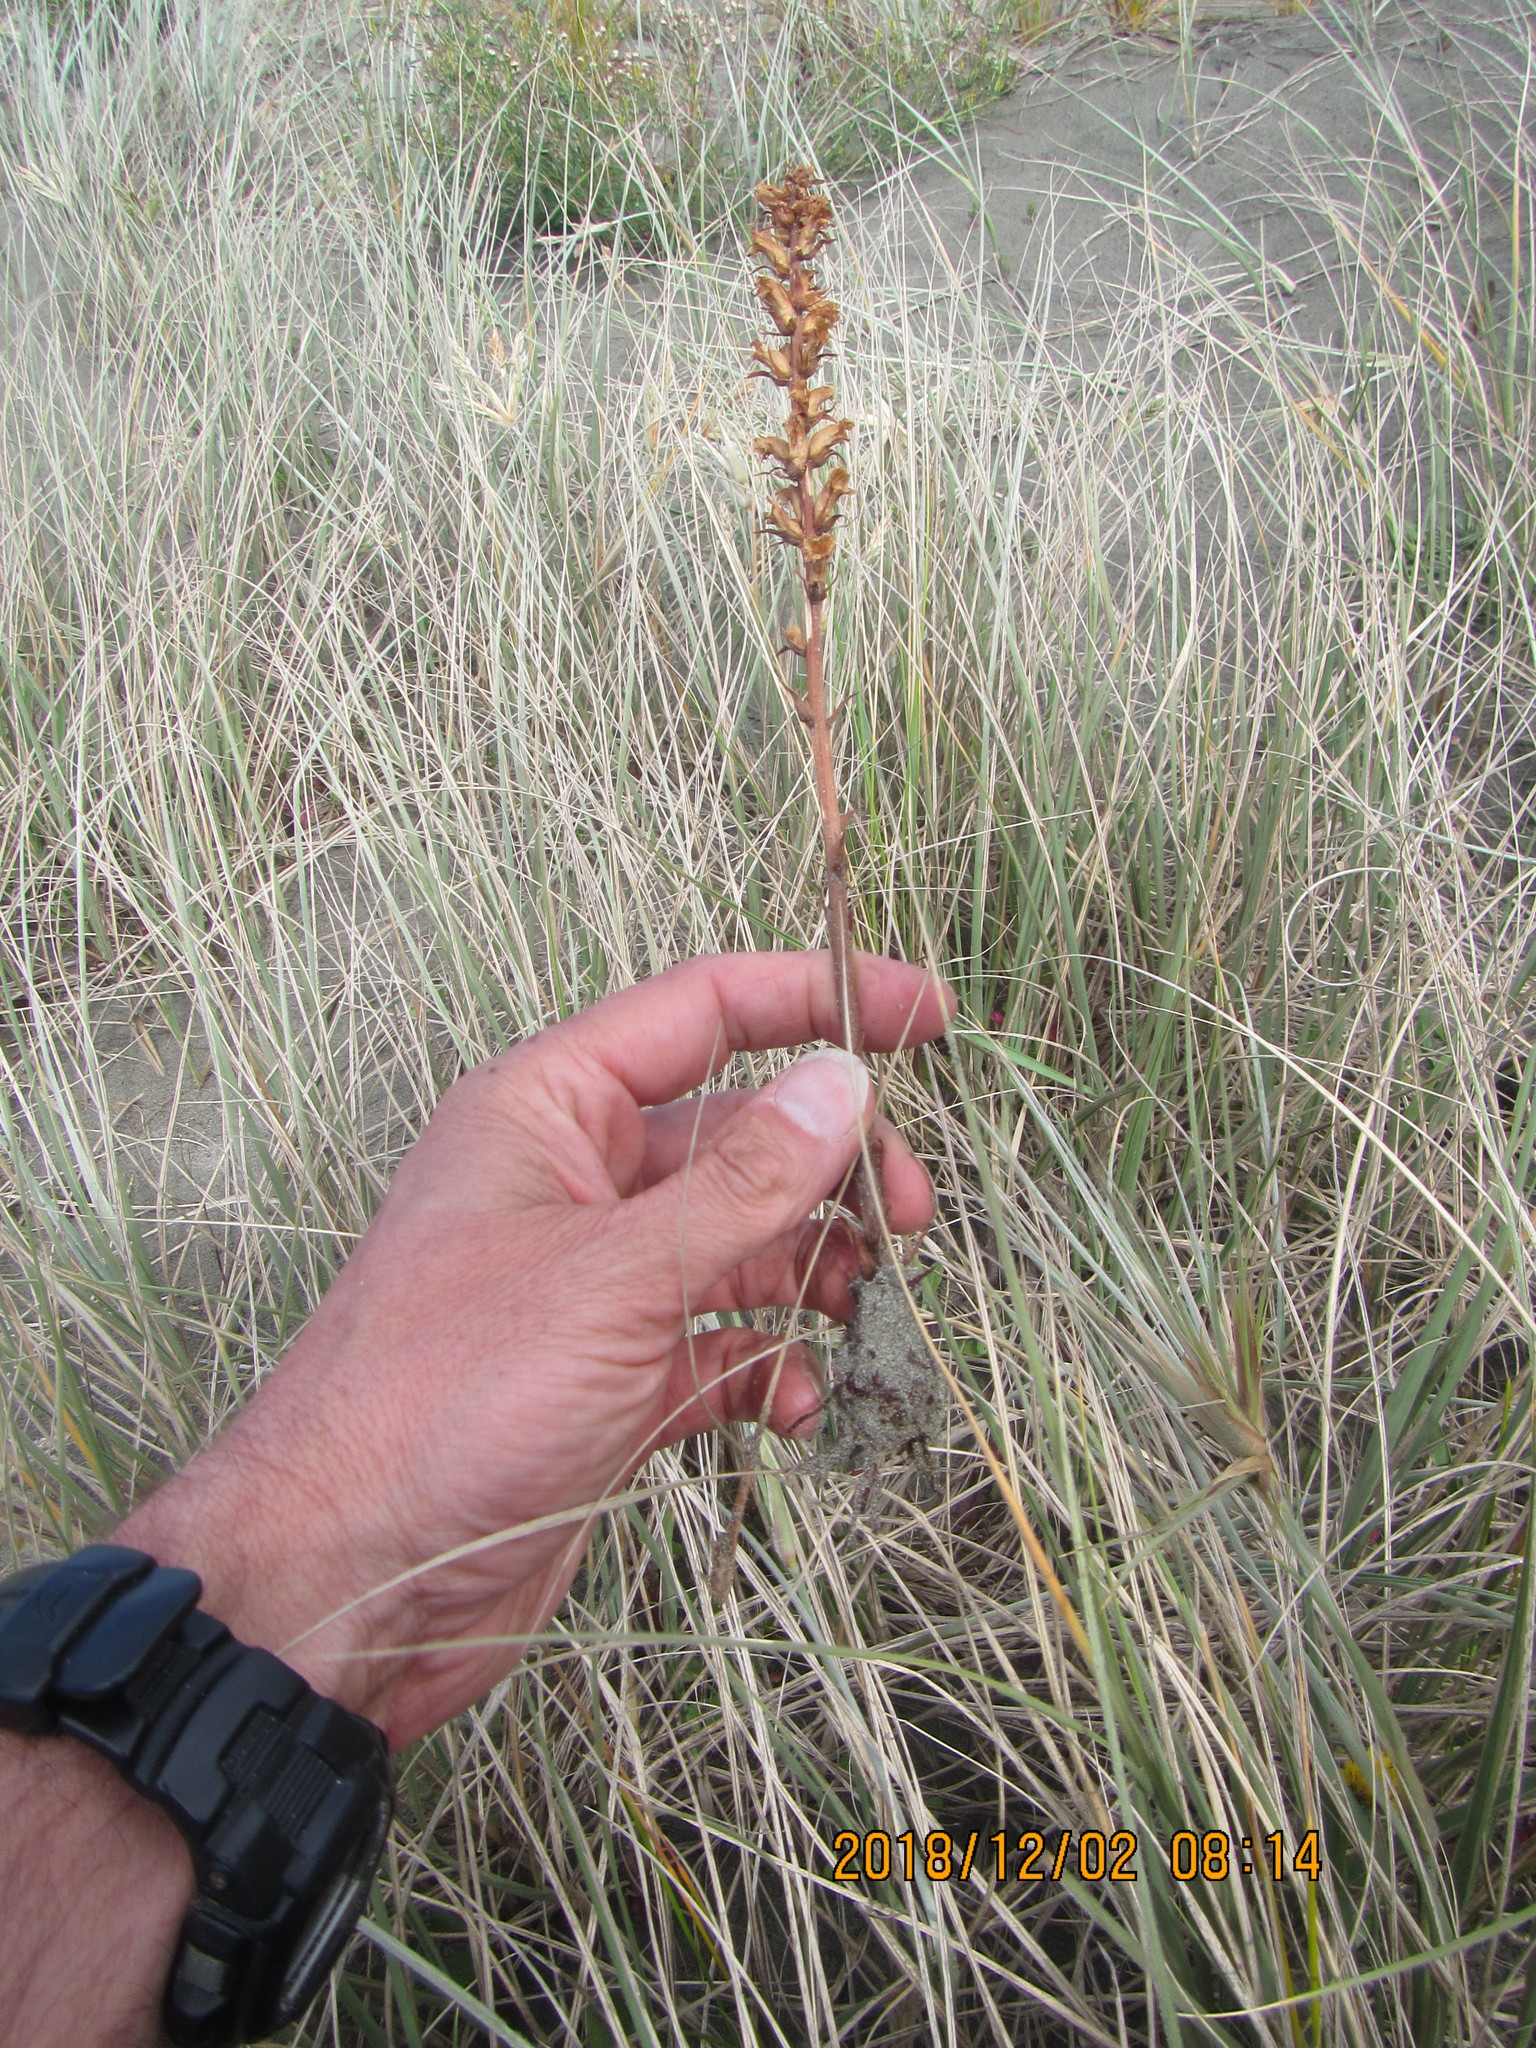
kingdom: Plantae
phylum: Tracheophyta
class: Magnoliopsida
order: Lamiales
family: Orobanchaceae
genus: Orobanche
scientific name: Orobanche minor
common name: Common broomrape
